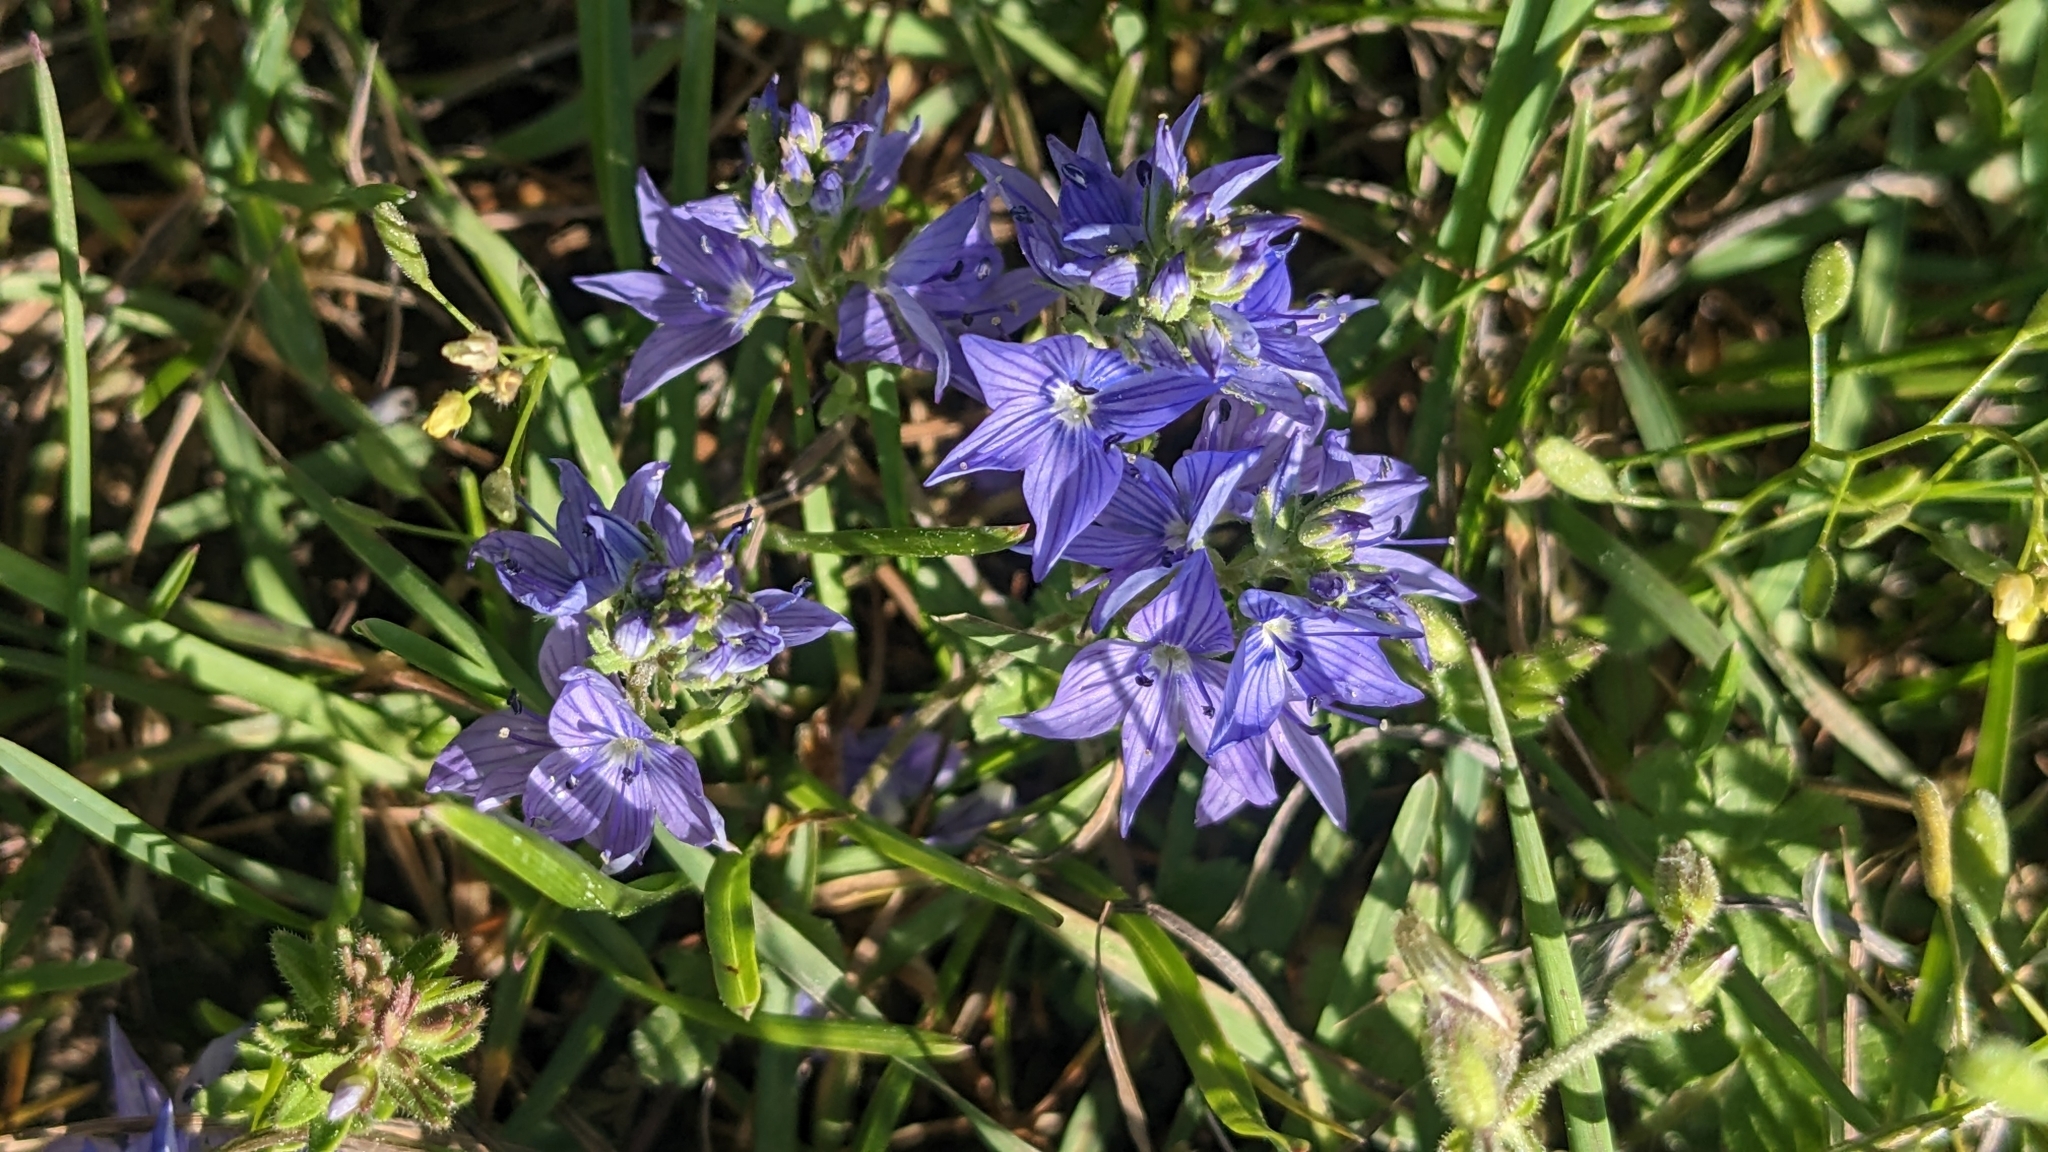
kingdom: Plantae
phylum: Tracheophyta
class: Magnoliopsida
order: Lamiales
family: Plantaginaceae
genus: Veronica
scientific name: Veronica orsiniana
